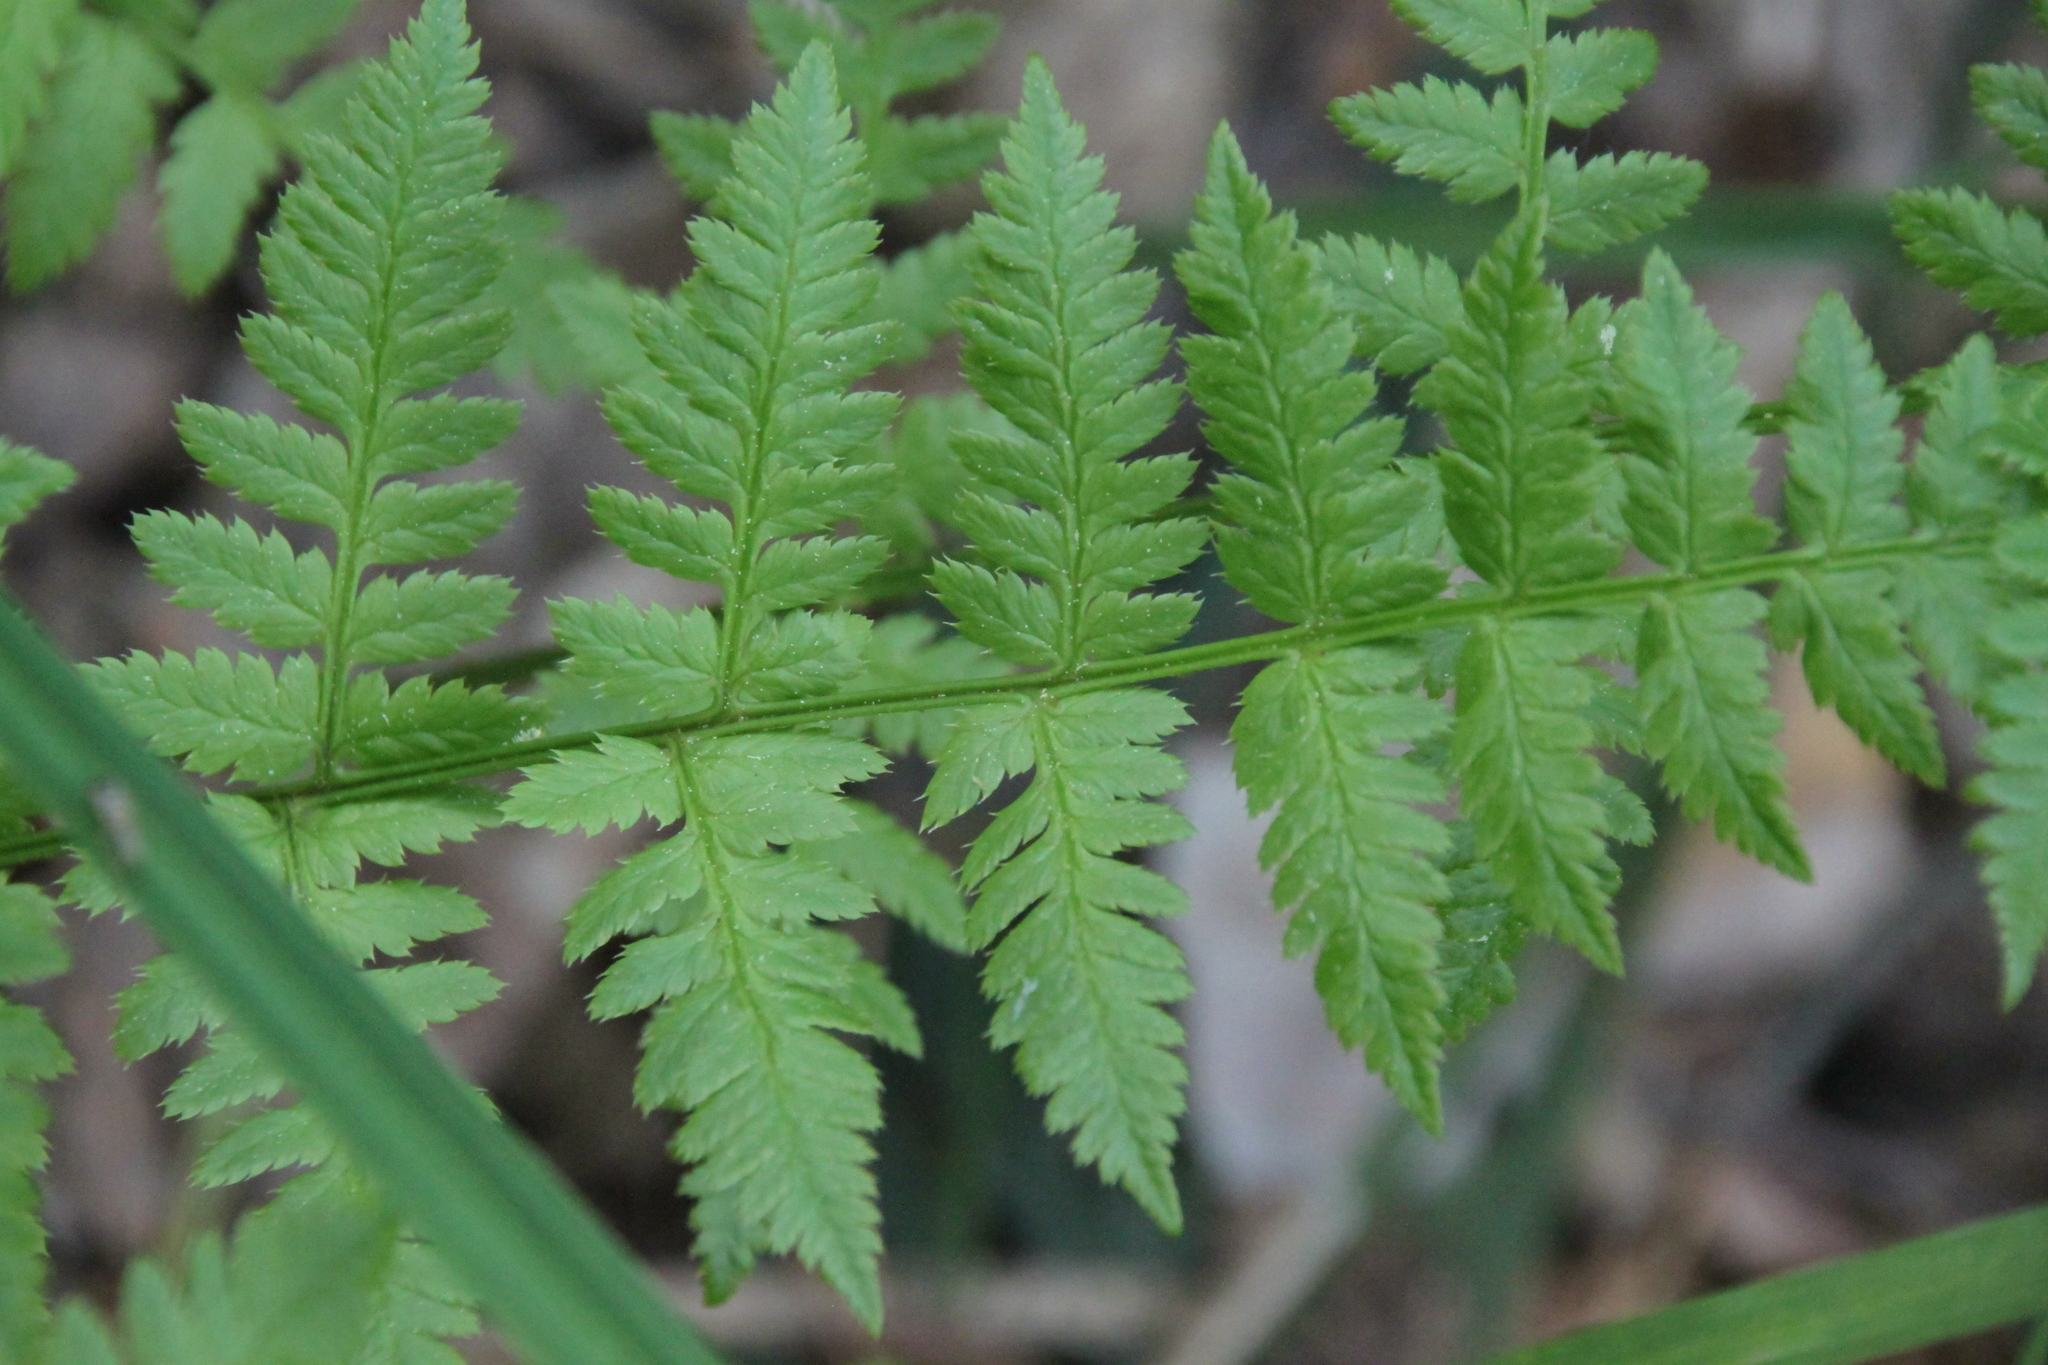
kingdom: Plantae
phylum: Tracheophyta
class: Polypodiopsida
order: Polypodiales
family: Dryopteridaceae
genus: Dryopteris
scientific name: Dryopteris carthusiana
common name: Narrow buckler-fern
